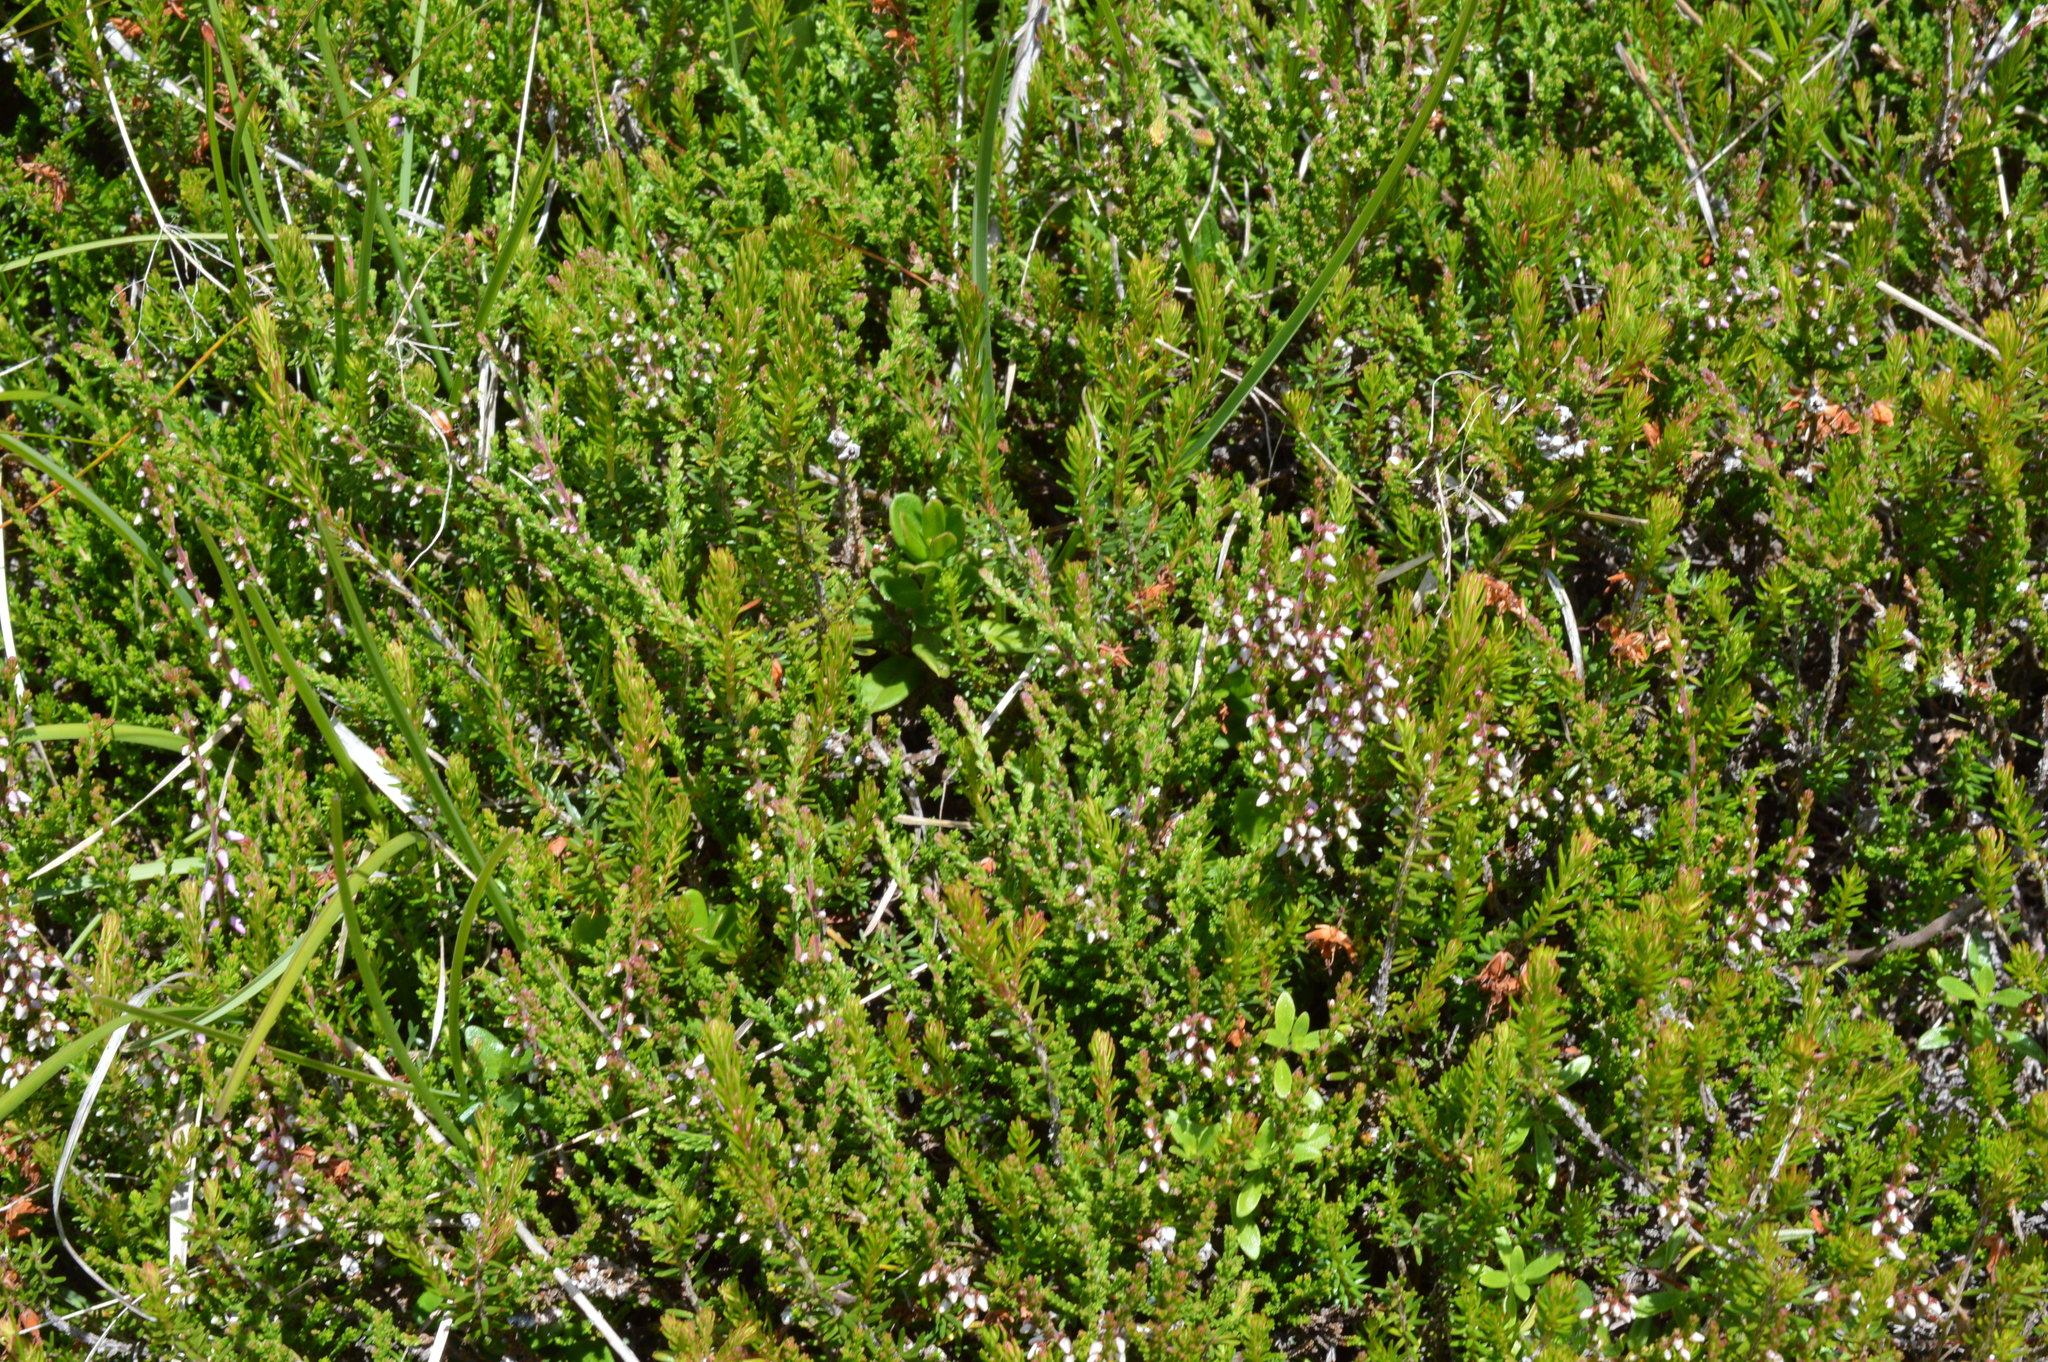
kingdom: Plantae
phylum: Tracheophyta
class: Magnoliopsida
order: Ericales
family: Ericaceae
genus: Calluna
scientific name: Calluna vulgaris
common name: Heather
